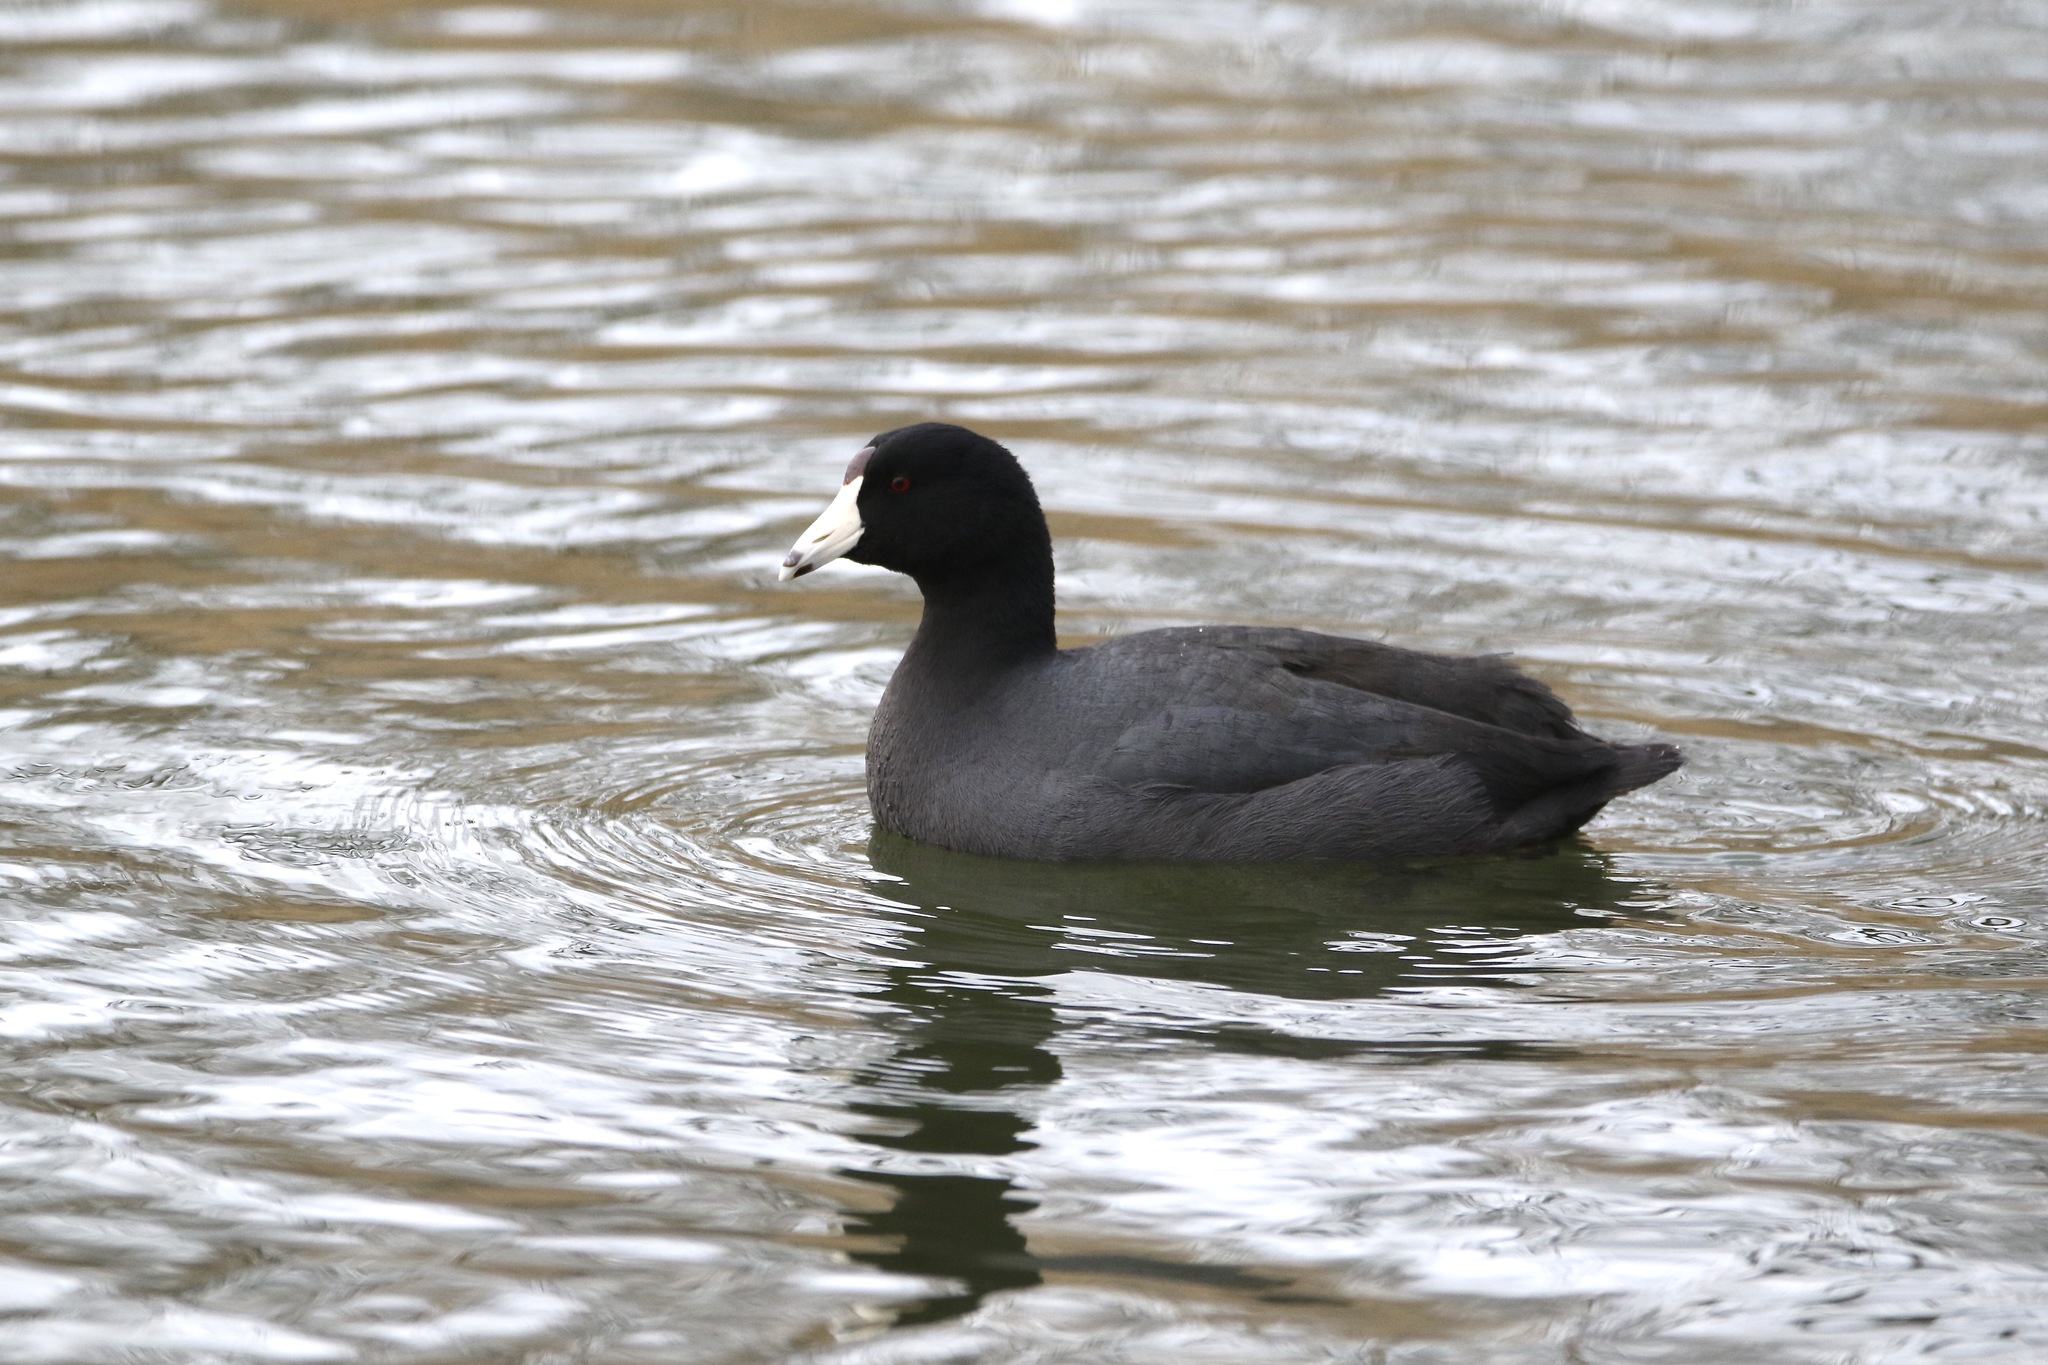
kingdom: Animalia
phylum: Chordata
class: Aves
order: Gruiformes
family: Rallidae
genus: Fulica
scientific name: Fulica americana
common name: American coot
